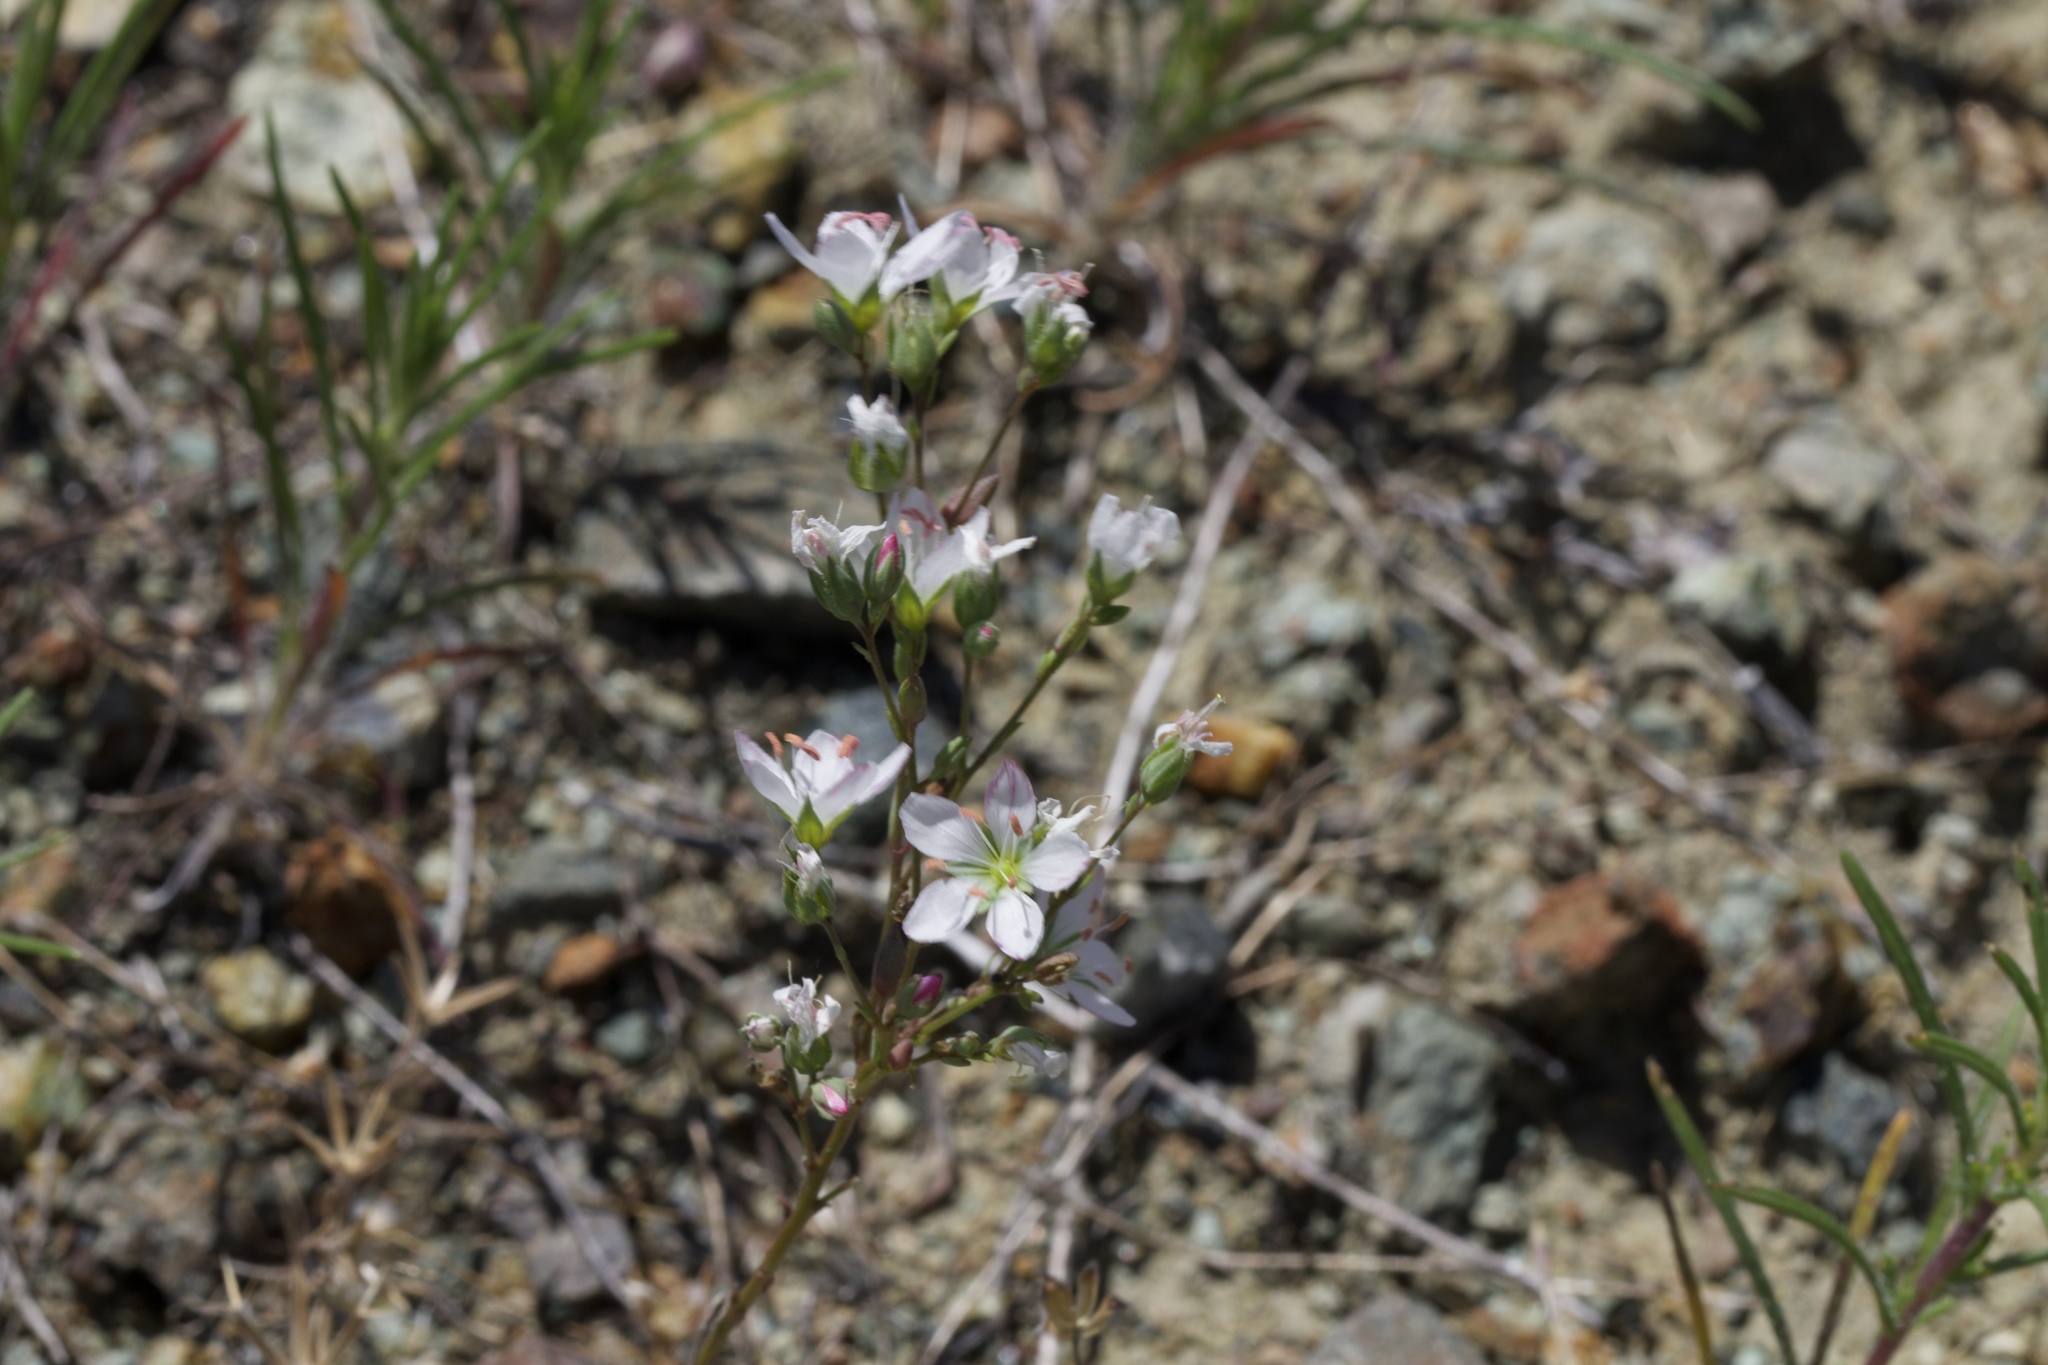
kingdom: Plantae
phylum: Tracheophyta
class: Magnoliopsida
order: Malpighiales
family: Linaceae
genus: Hesperolinon
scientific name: Hesperolinon californicum
